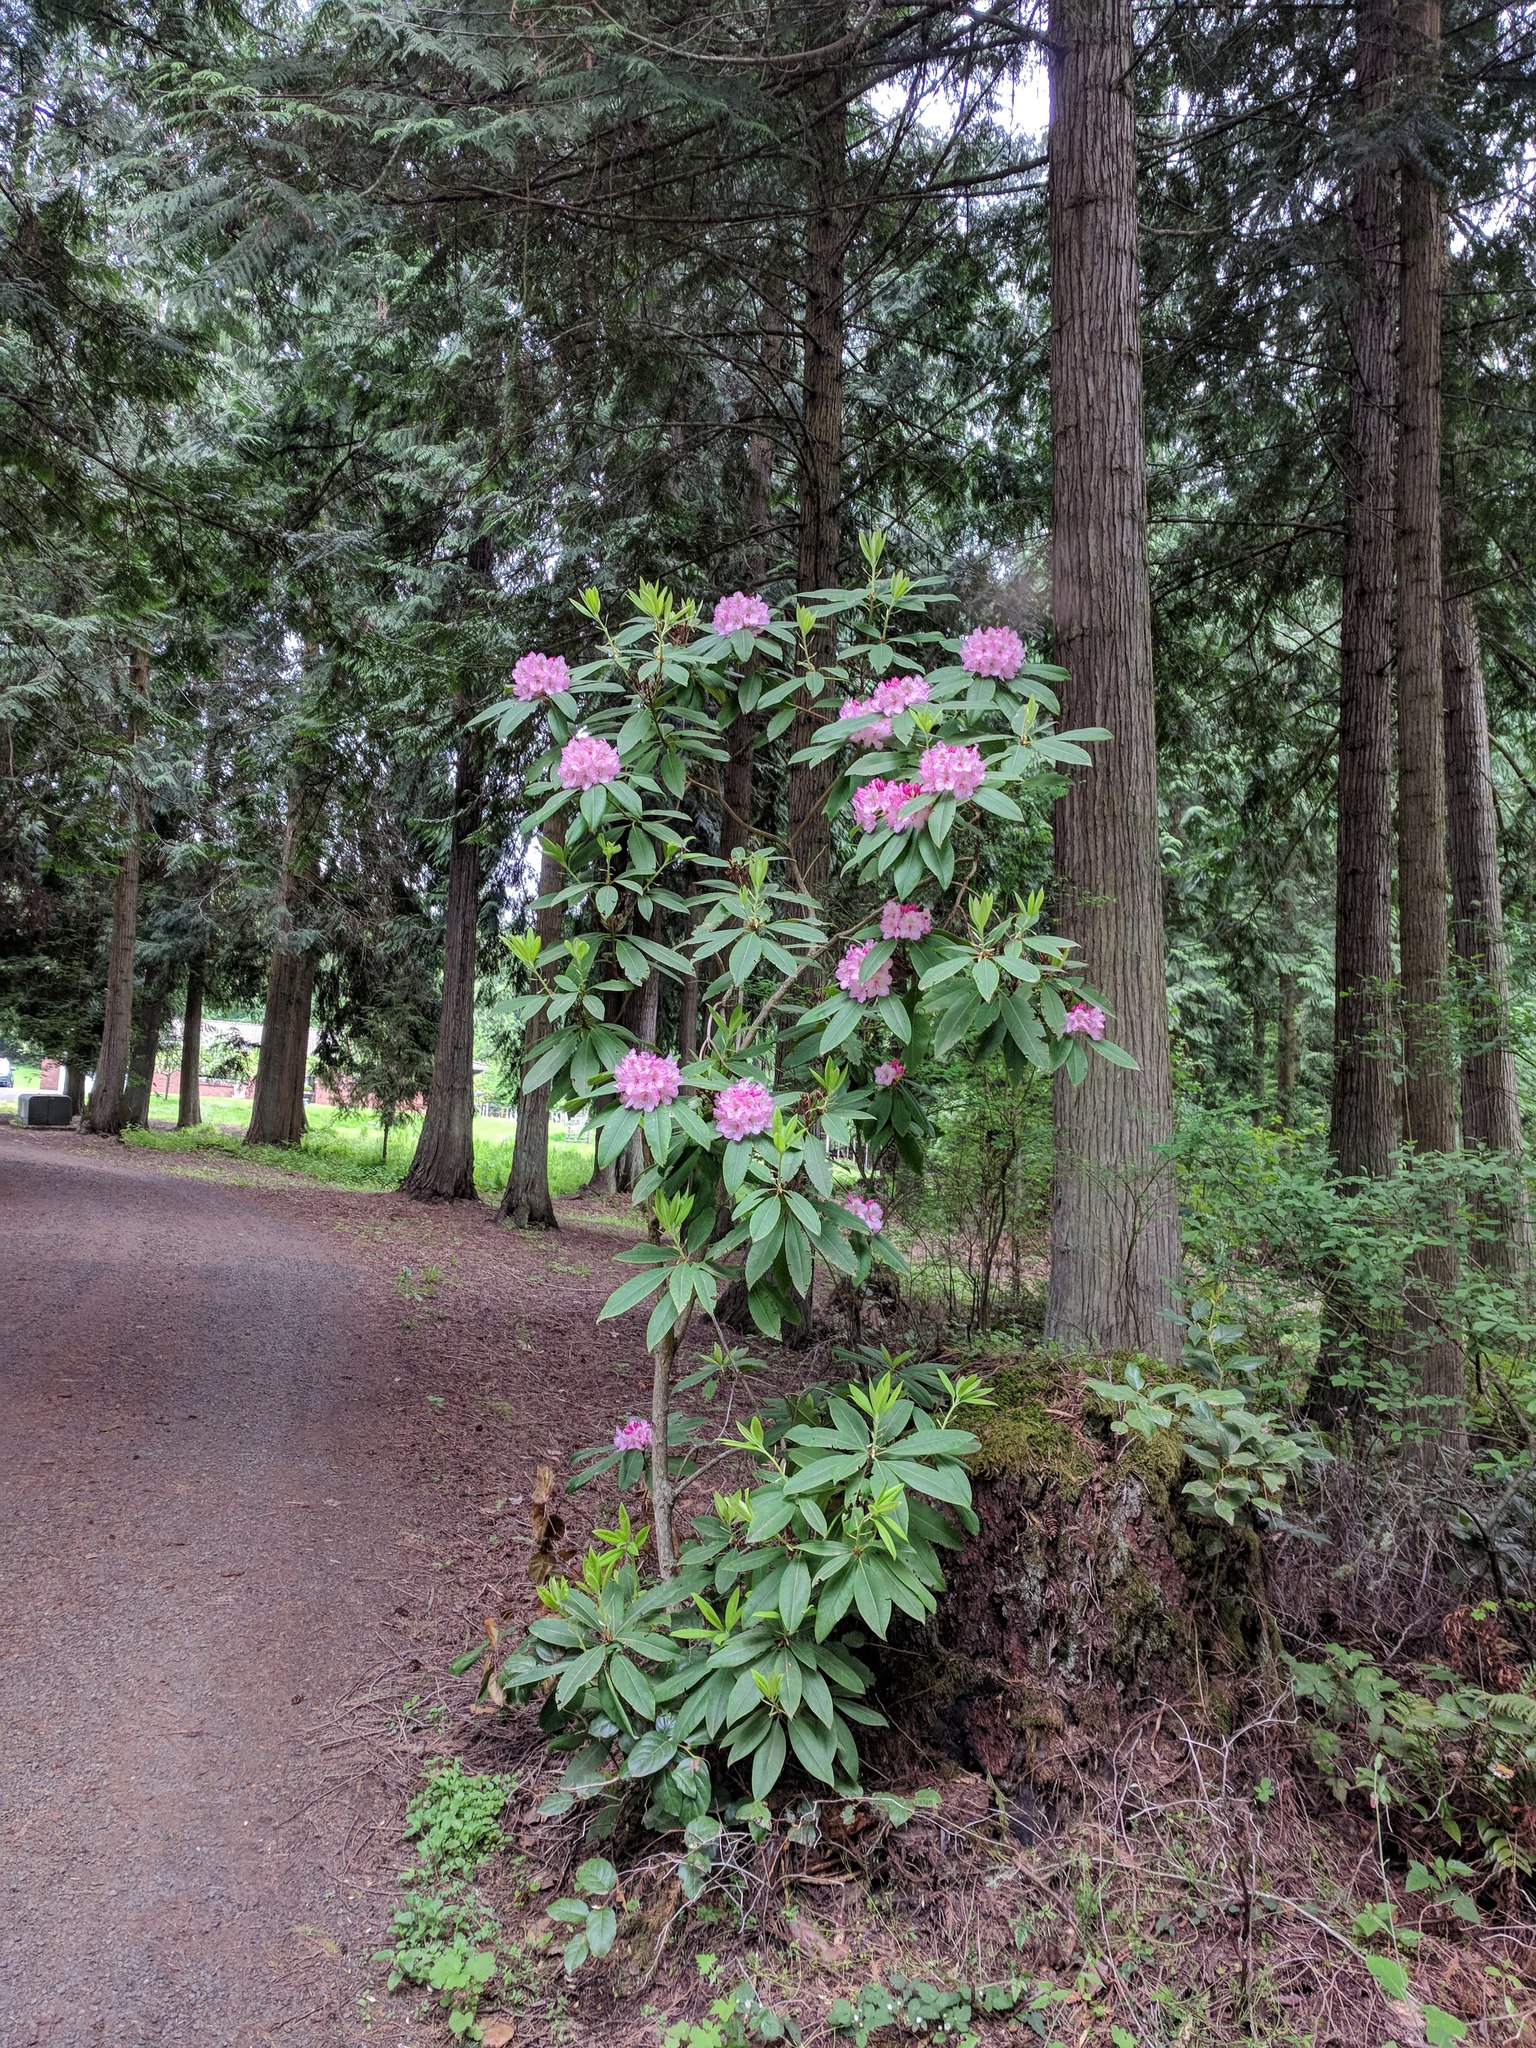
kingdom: Plantae
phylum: Tracheophyta
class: Magnoliopsida
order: Ericales
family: Ericaceae
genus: Rhododendron
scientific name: Rhododendron macrophyllum
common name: California rose bay
